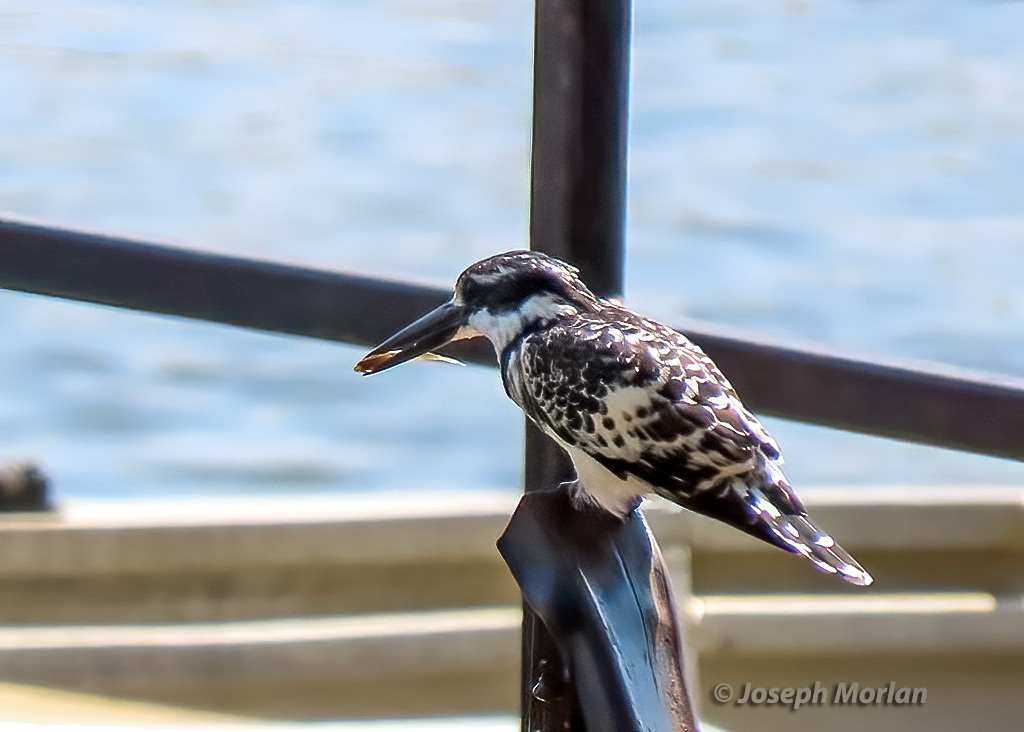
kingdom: Animalia
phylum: Chordata
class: Aves
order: Coraciiformes
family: Alcedinidae
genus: Ceryle
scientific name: Ceryle rudis
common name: Pied kingfisher
